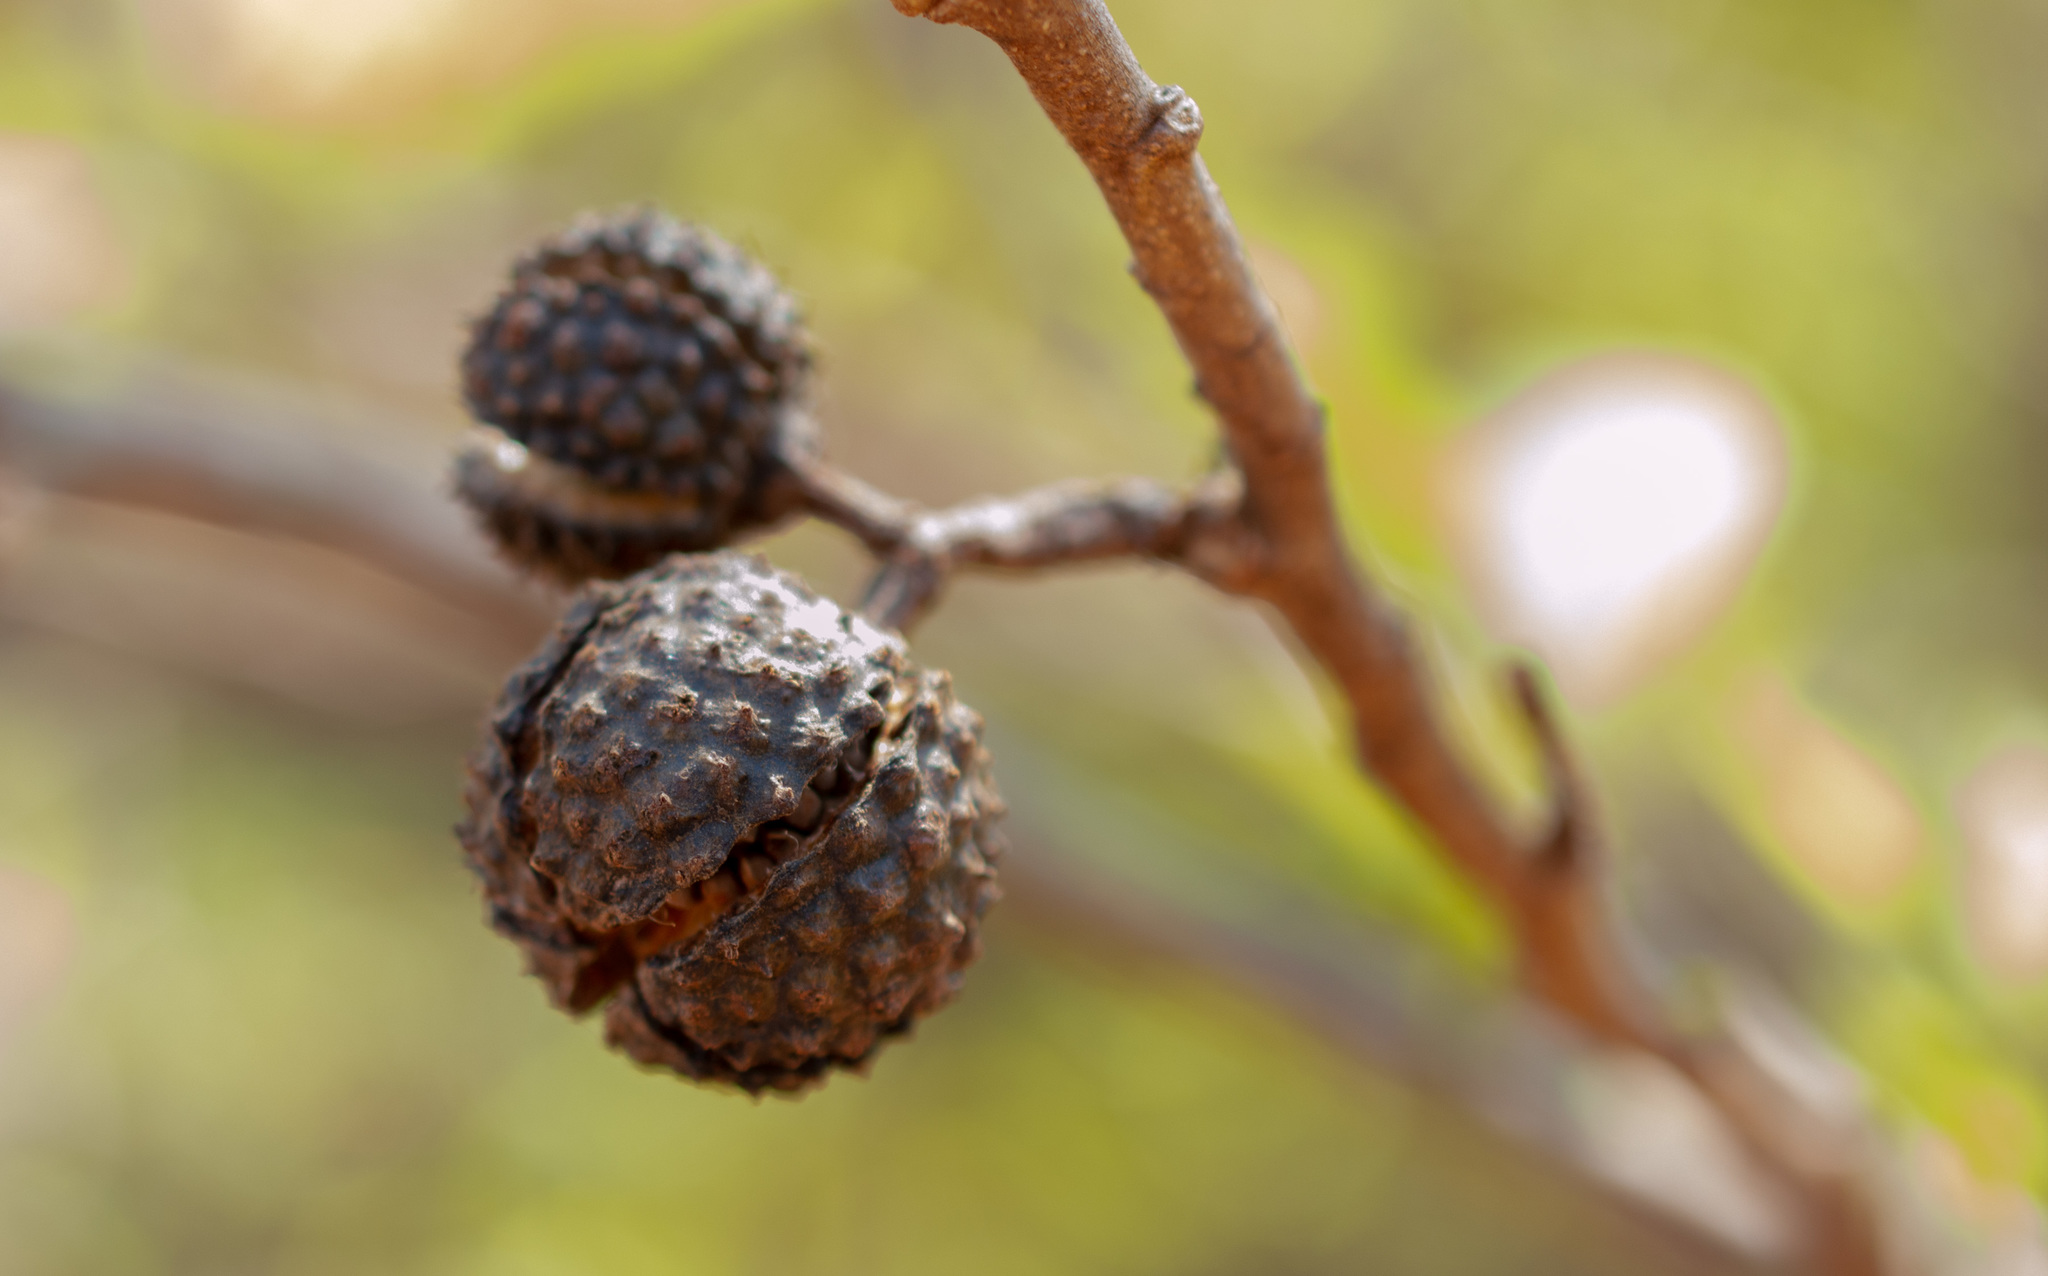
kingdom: Plantae
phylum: Tracheophyta
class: Magnoliopsida
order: Malvales
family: Malvaceae
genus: Guazuma
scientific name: Guazuma ulmifolia
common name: Bastard-cedar
